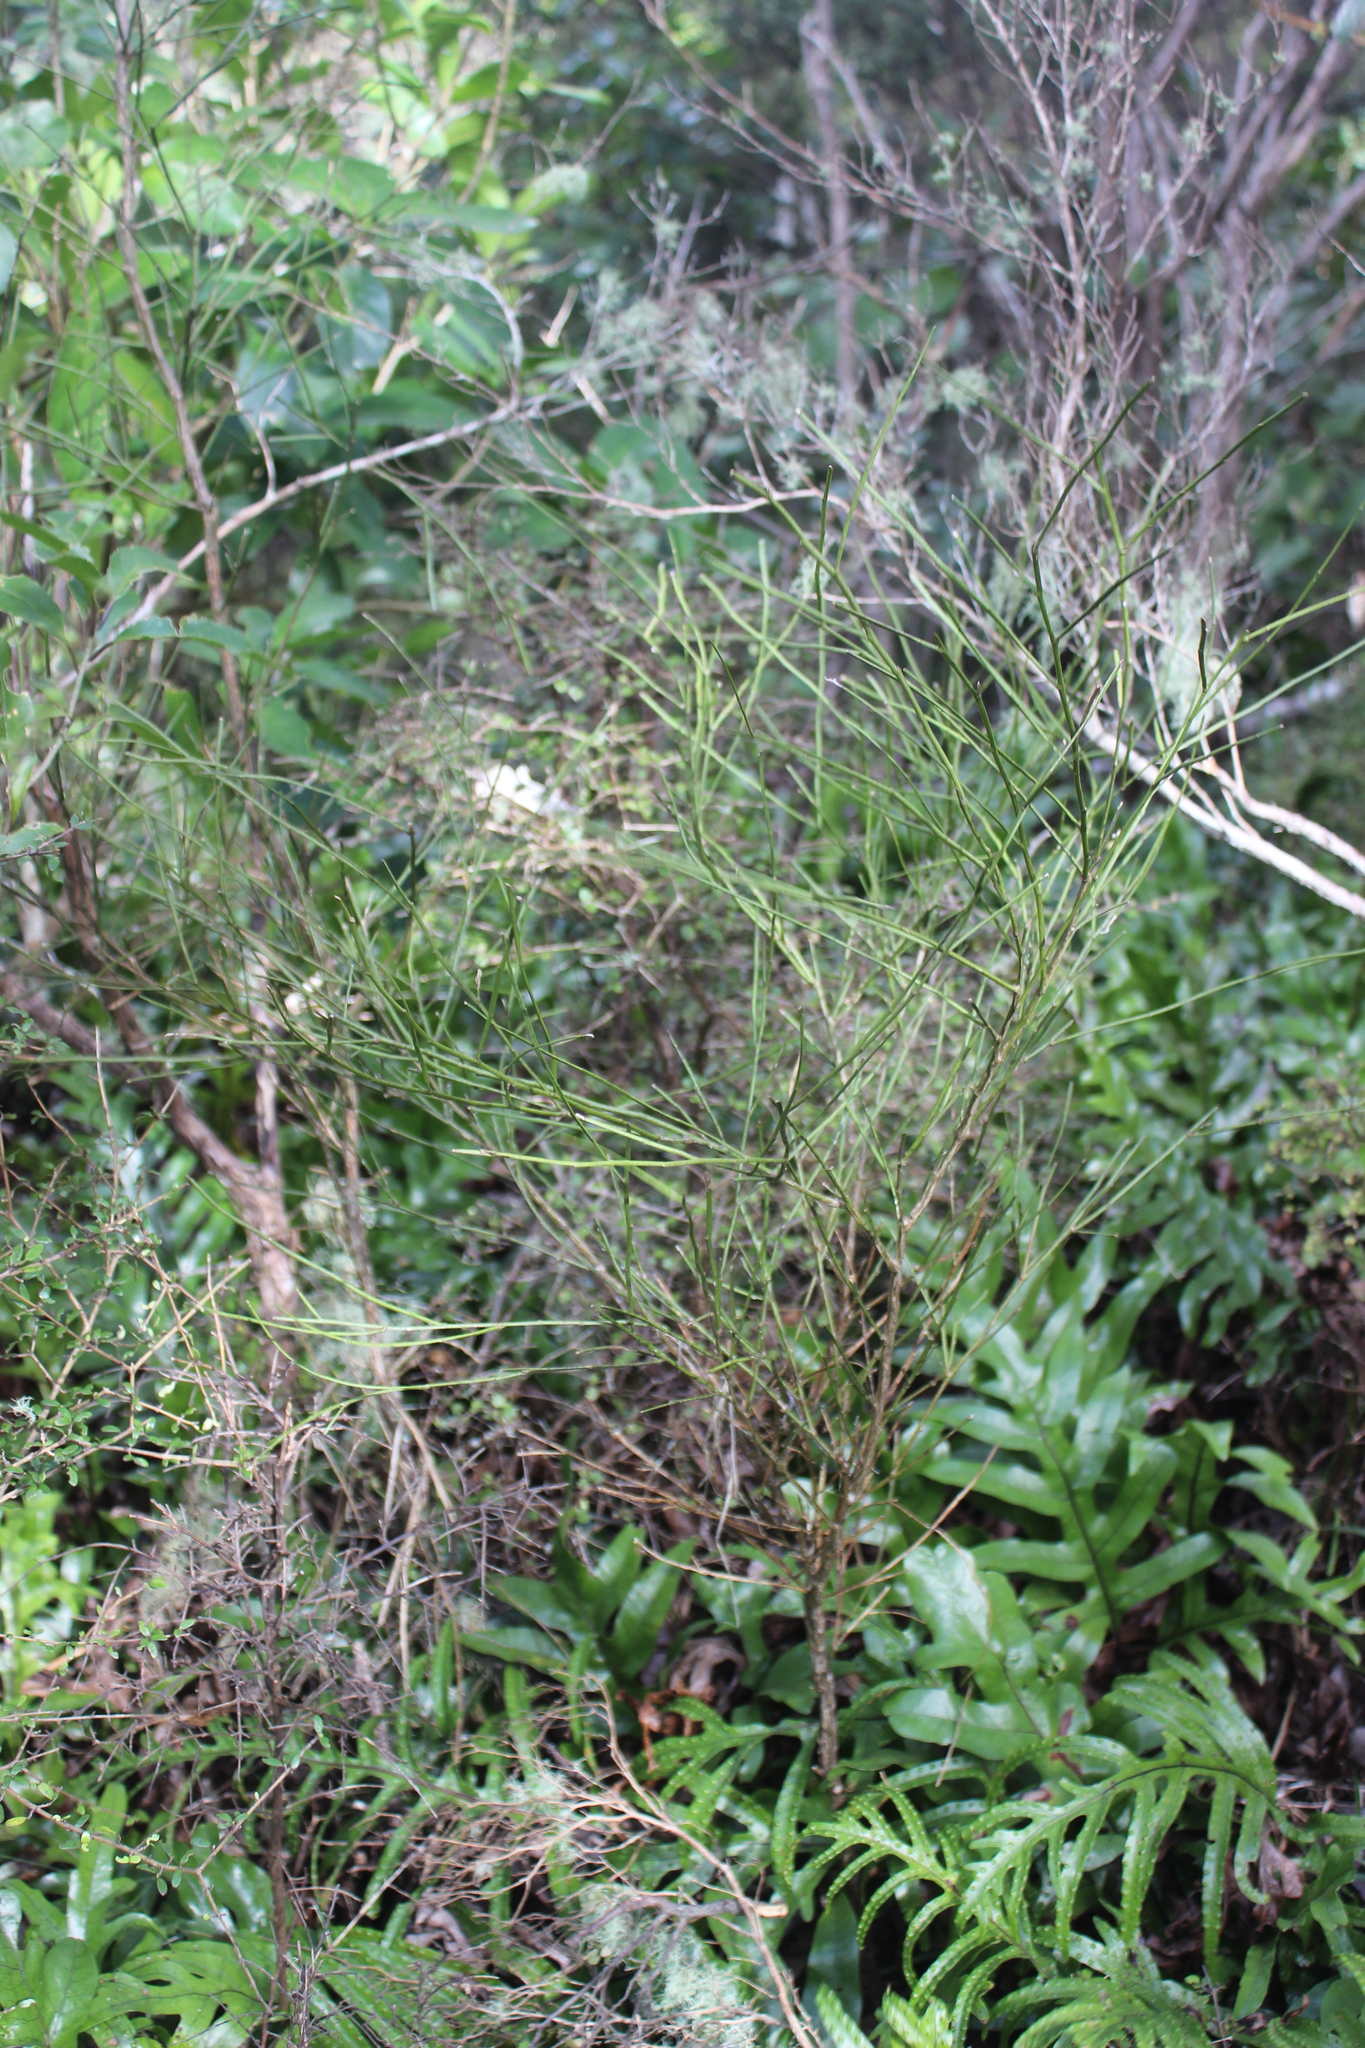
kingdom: Plantae
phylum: Tracheophyta
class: Magnoliopsida
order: Fabales
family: Fabaceae
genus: Carmichaelia
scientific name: Carmichaelia australis
